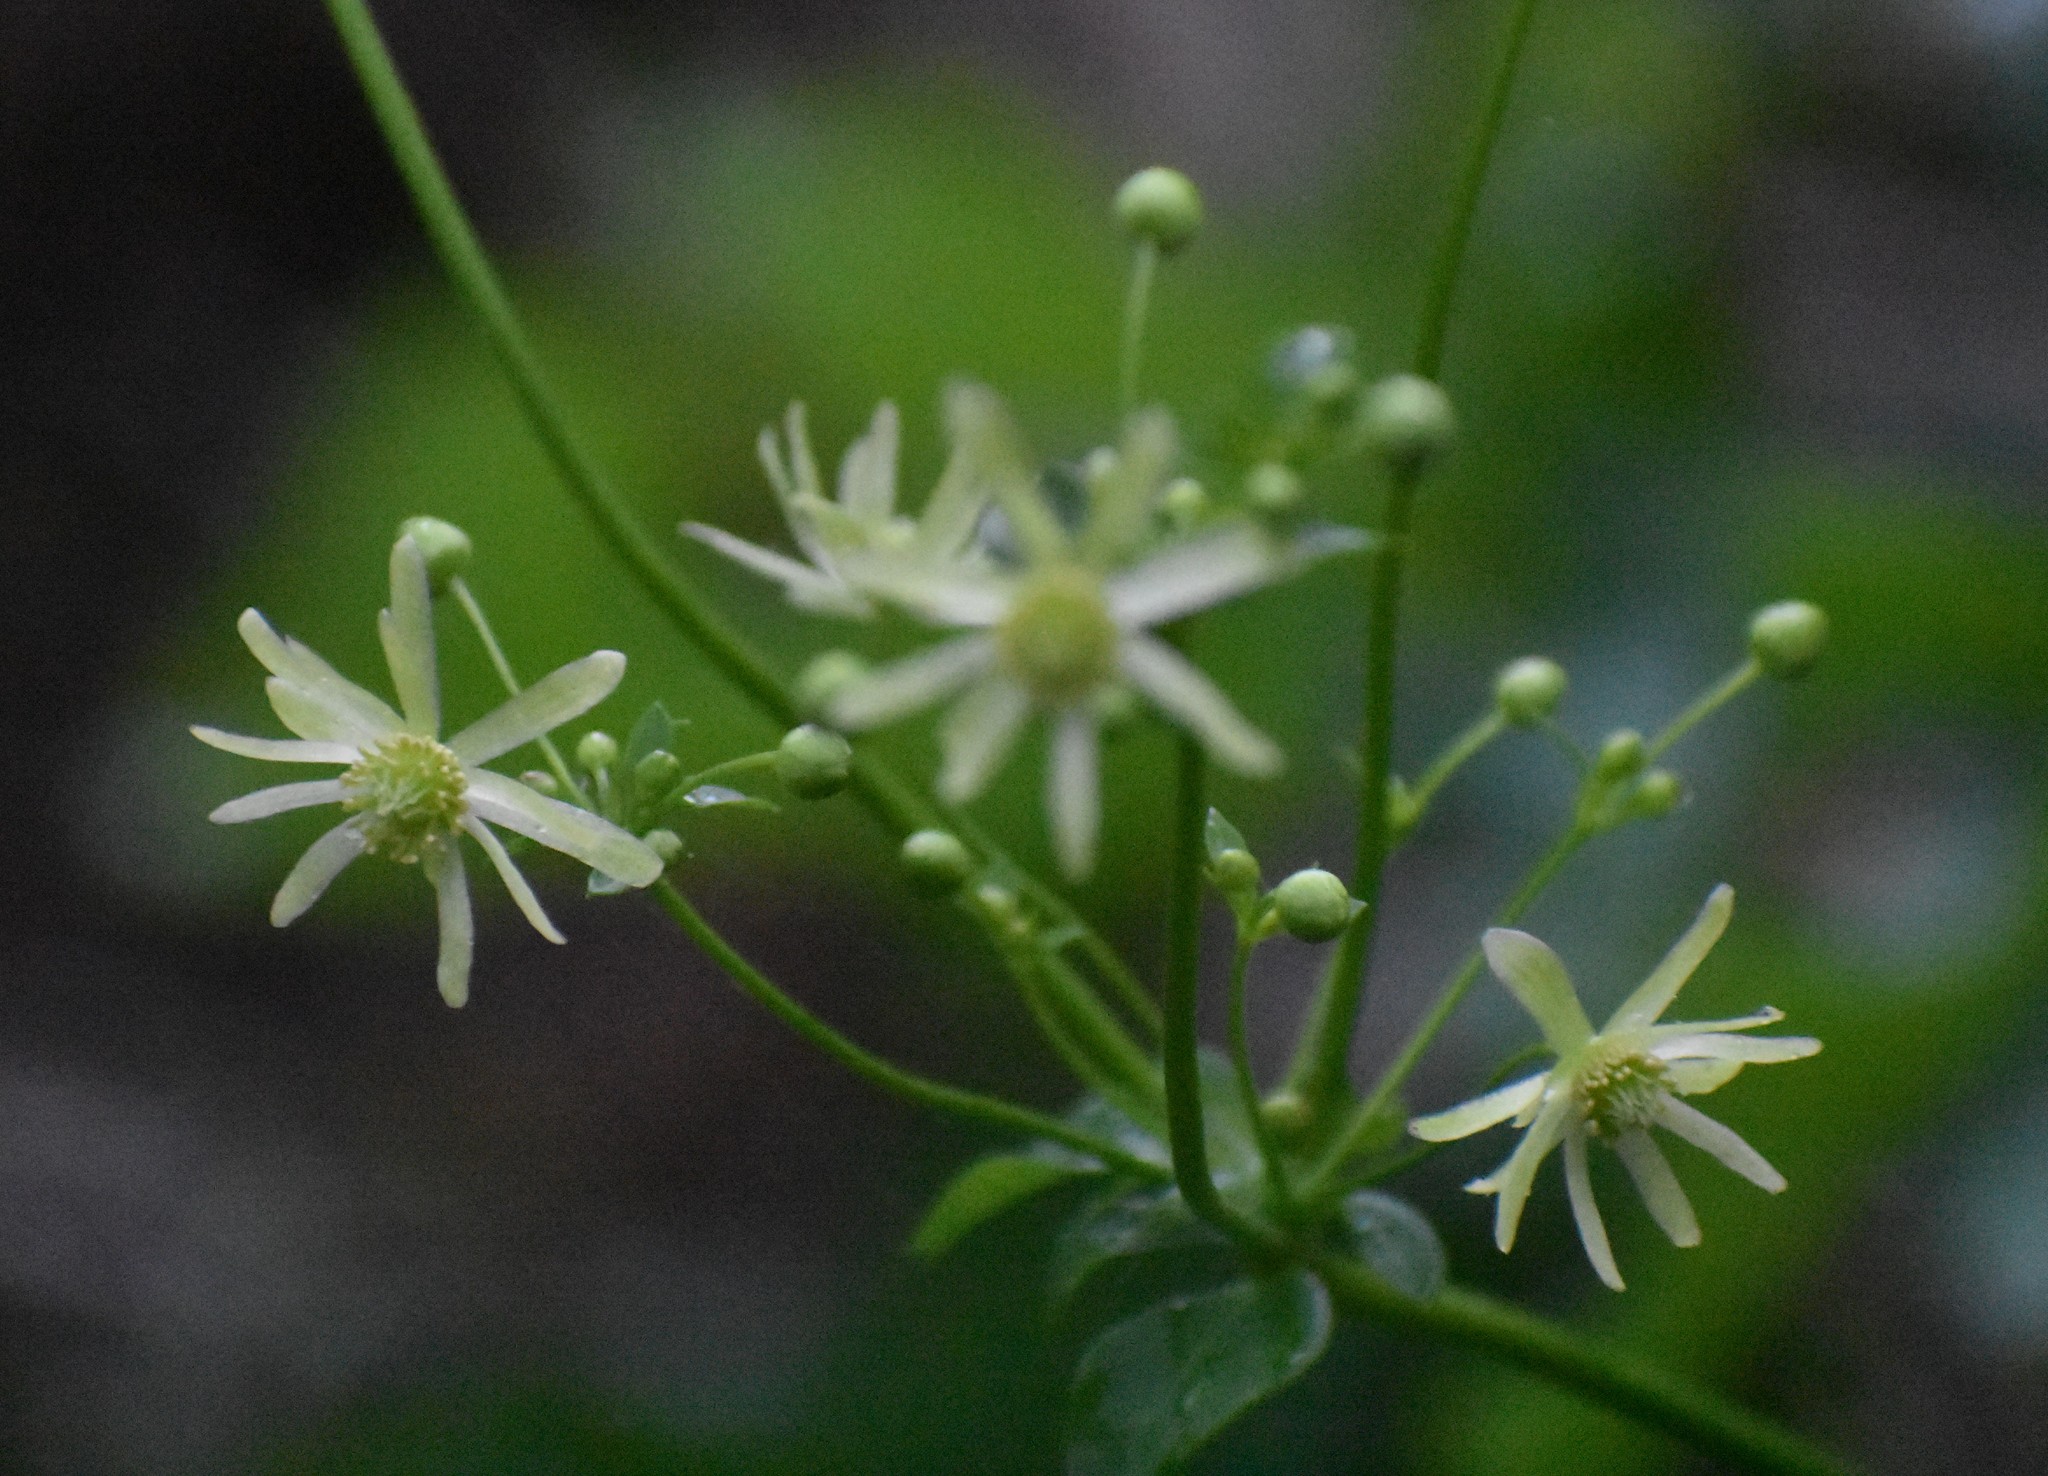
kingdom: Plantae
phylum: Tracheophyta
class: Magnoliopsida
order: Ranunculales
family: Ranunculaceae
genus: Knowltonia
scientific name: Knowltonia vesicatoria
